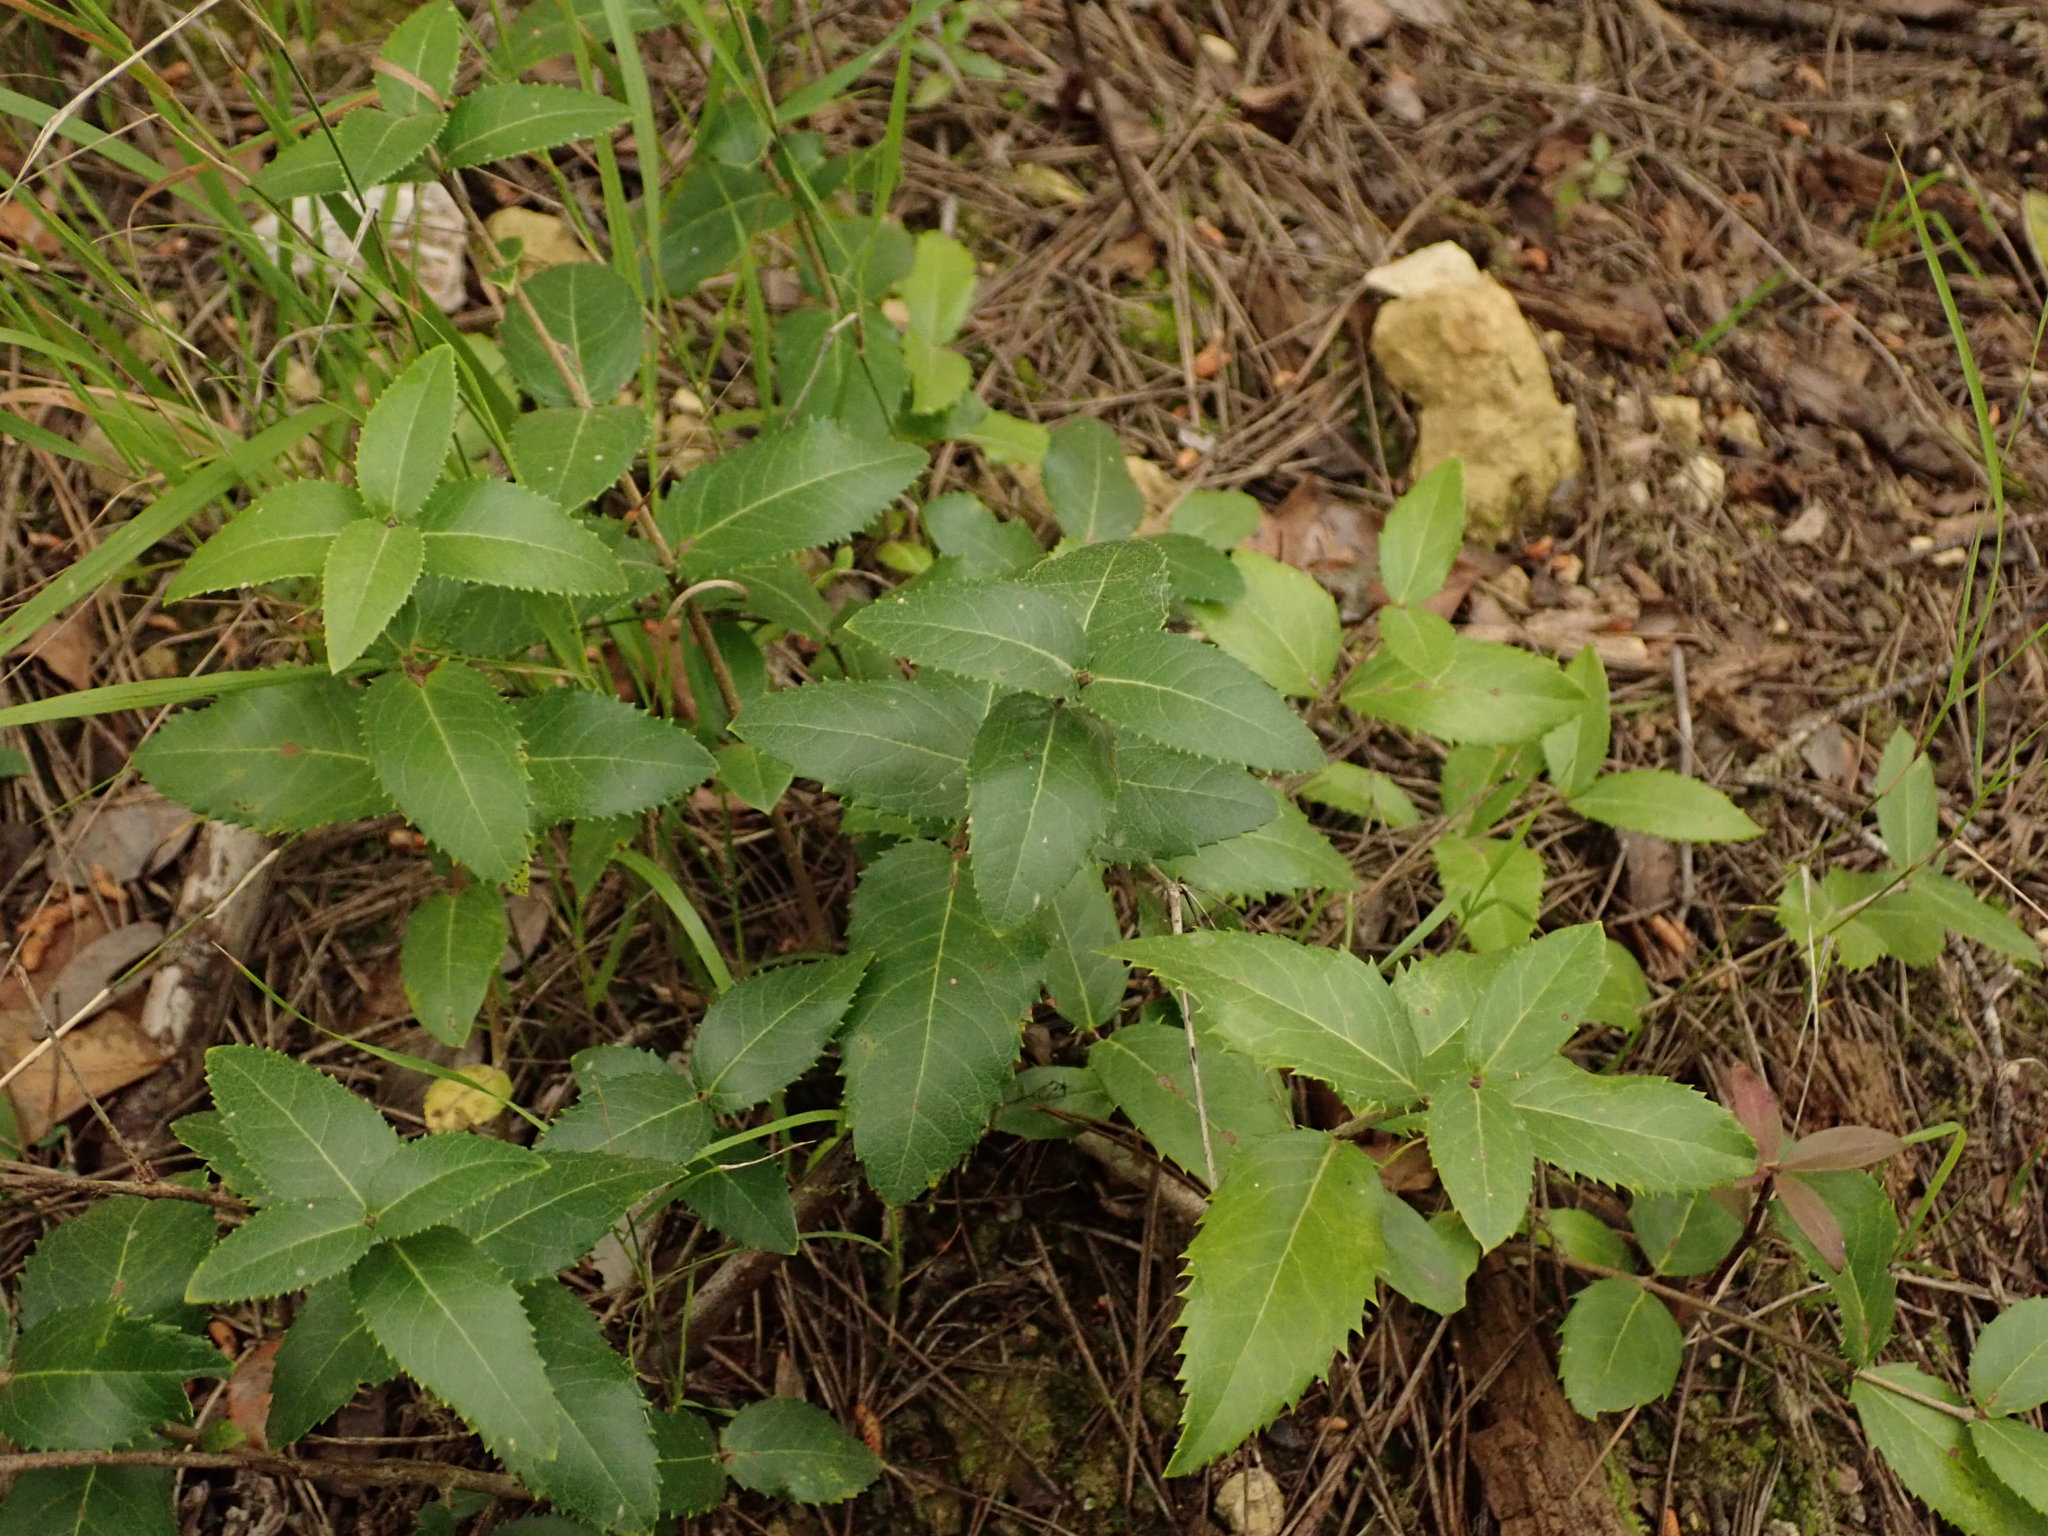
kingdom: Plantae
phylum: Tracheophyta
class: Magnoliopsida
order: Lamiales
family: Oleaceae
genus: Phillyrea
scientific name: Phillyrea latifolia
